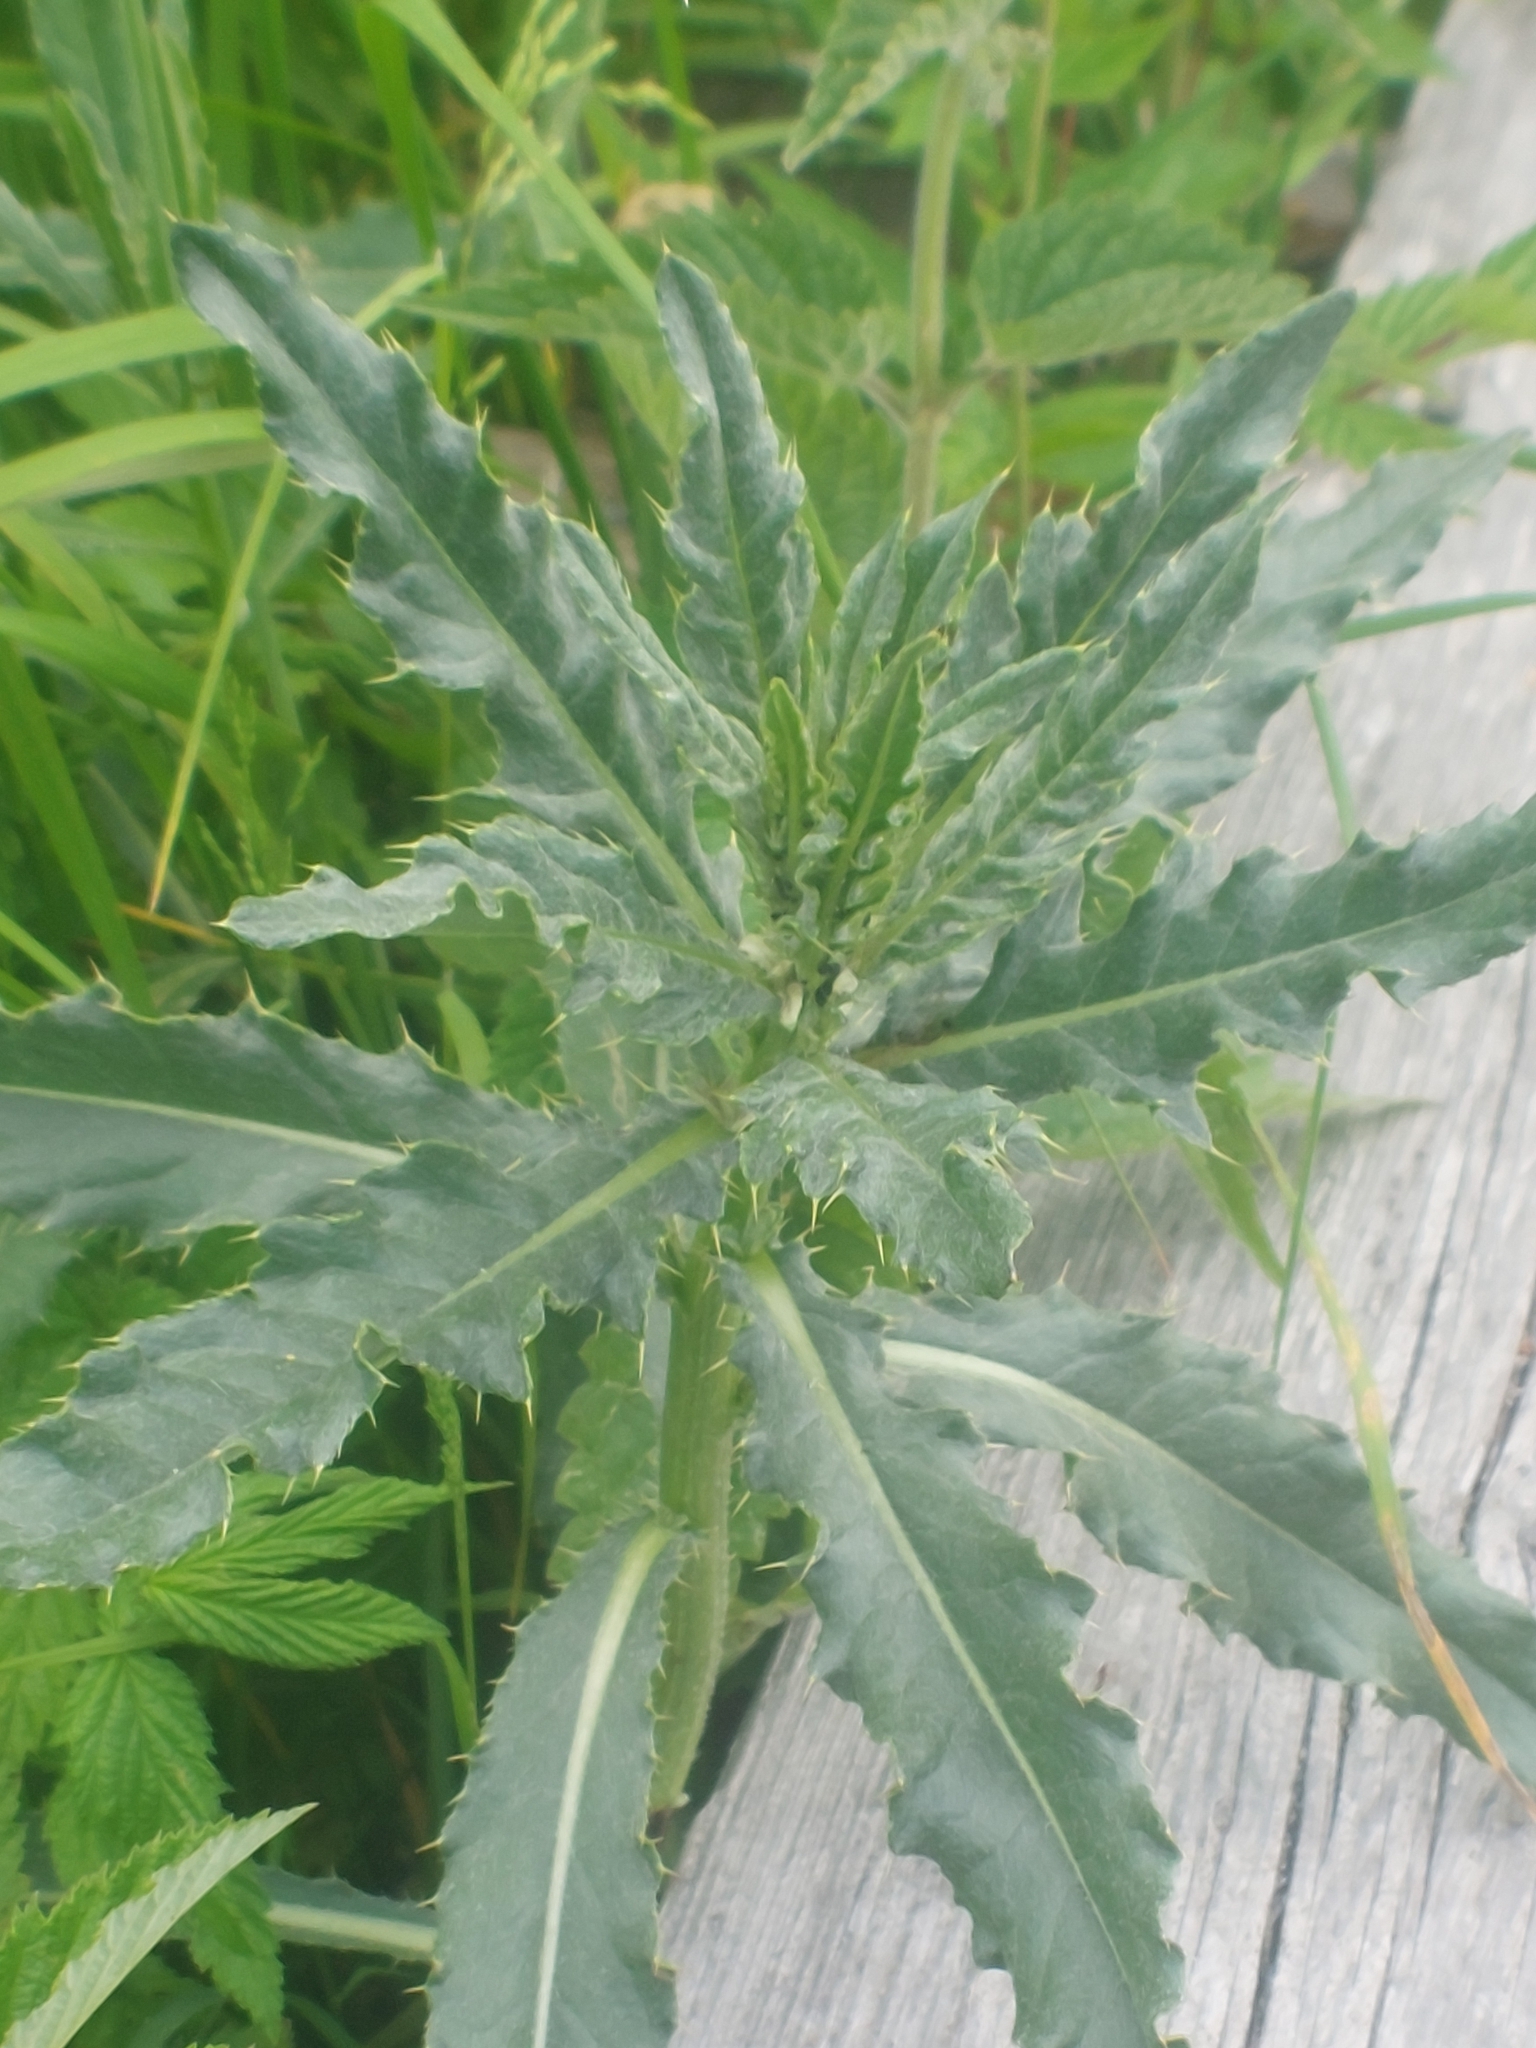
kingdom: Plantae
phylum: Tracheophyta
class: Magnoliopsida
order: Asterales
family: Asteraceae
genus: Cirsium
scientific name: Cirsium arvense
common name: Creeping thistle
